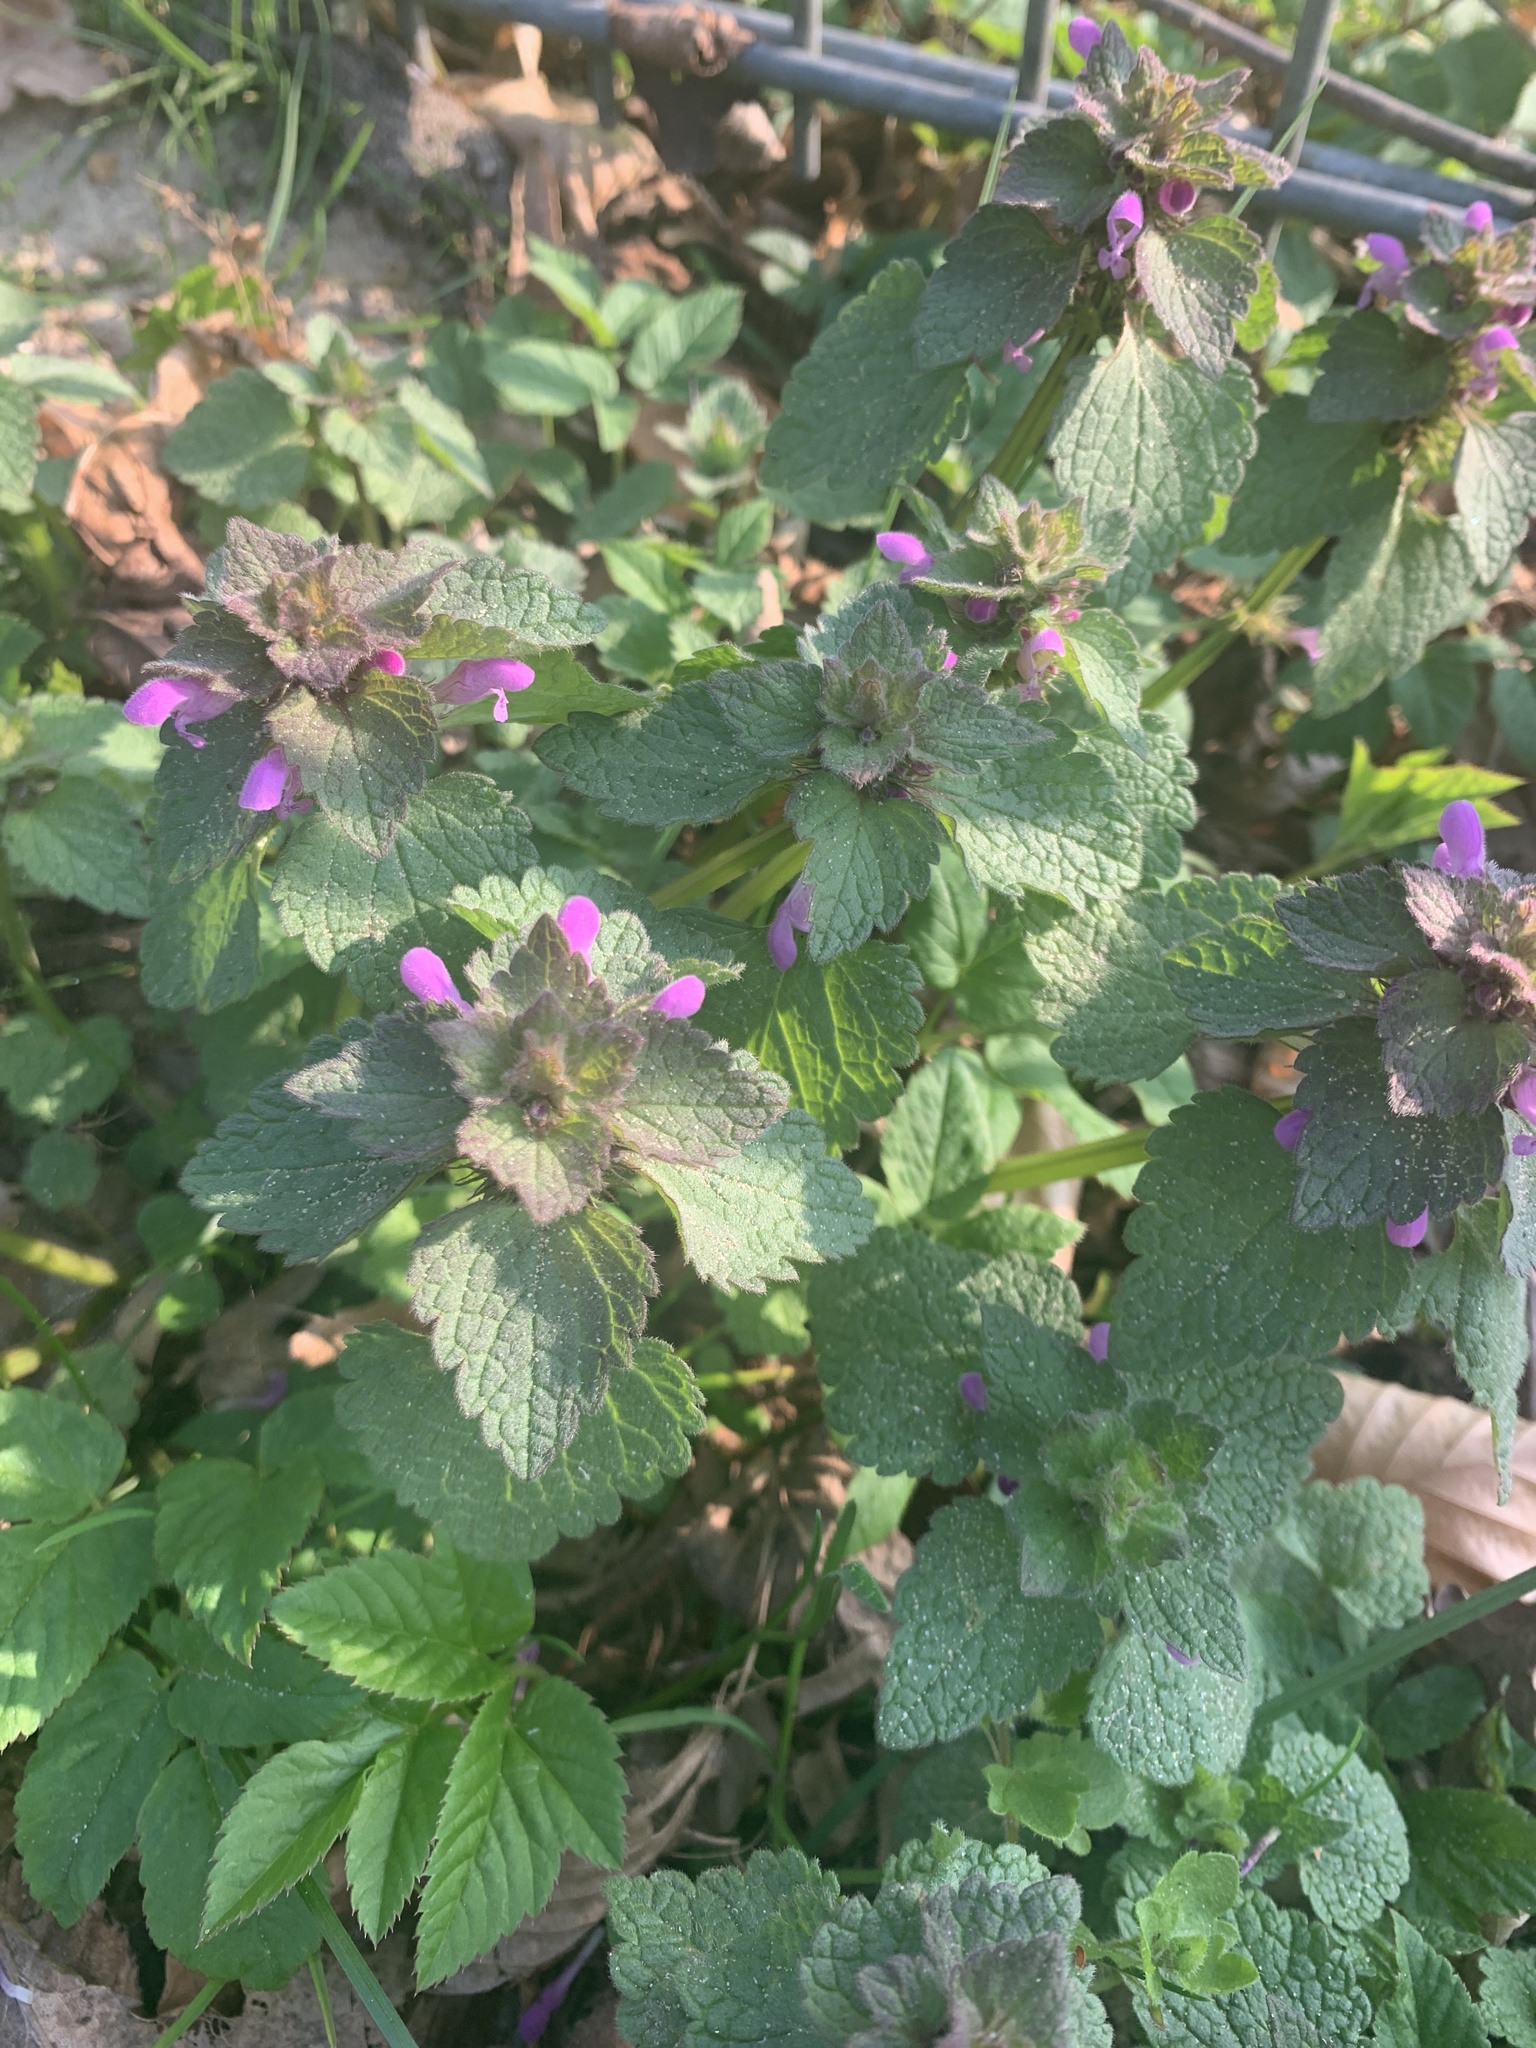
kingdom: Plantae
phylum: Tracheophyta
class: Magnoliopsida
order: Lamiales
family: Lamiaceae
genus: Lamium
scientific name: Lamium purpureum
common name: Red dead-nettle
